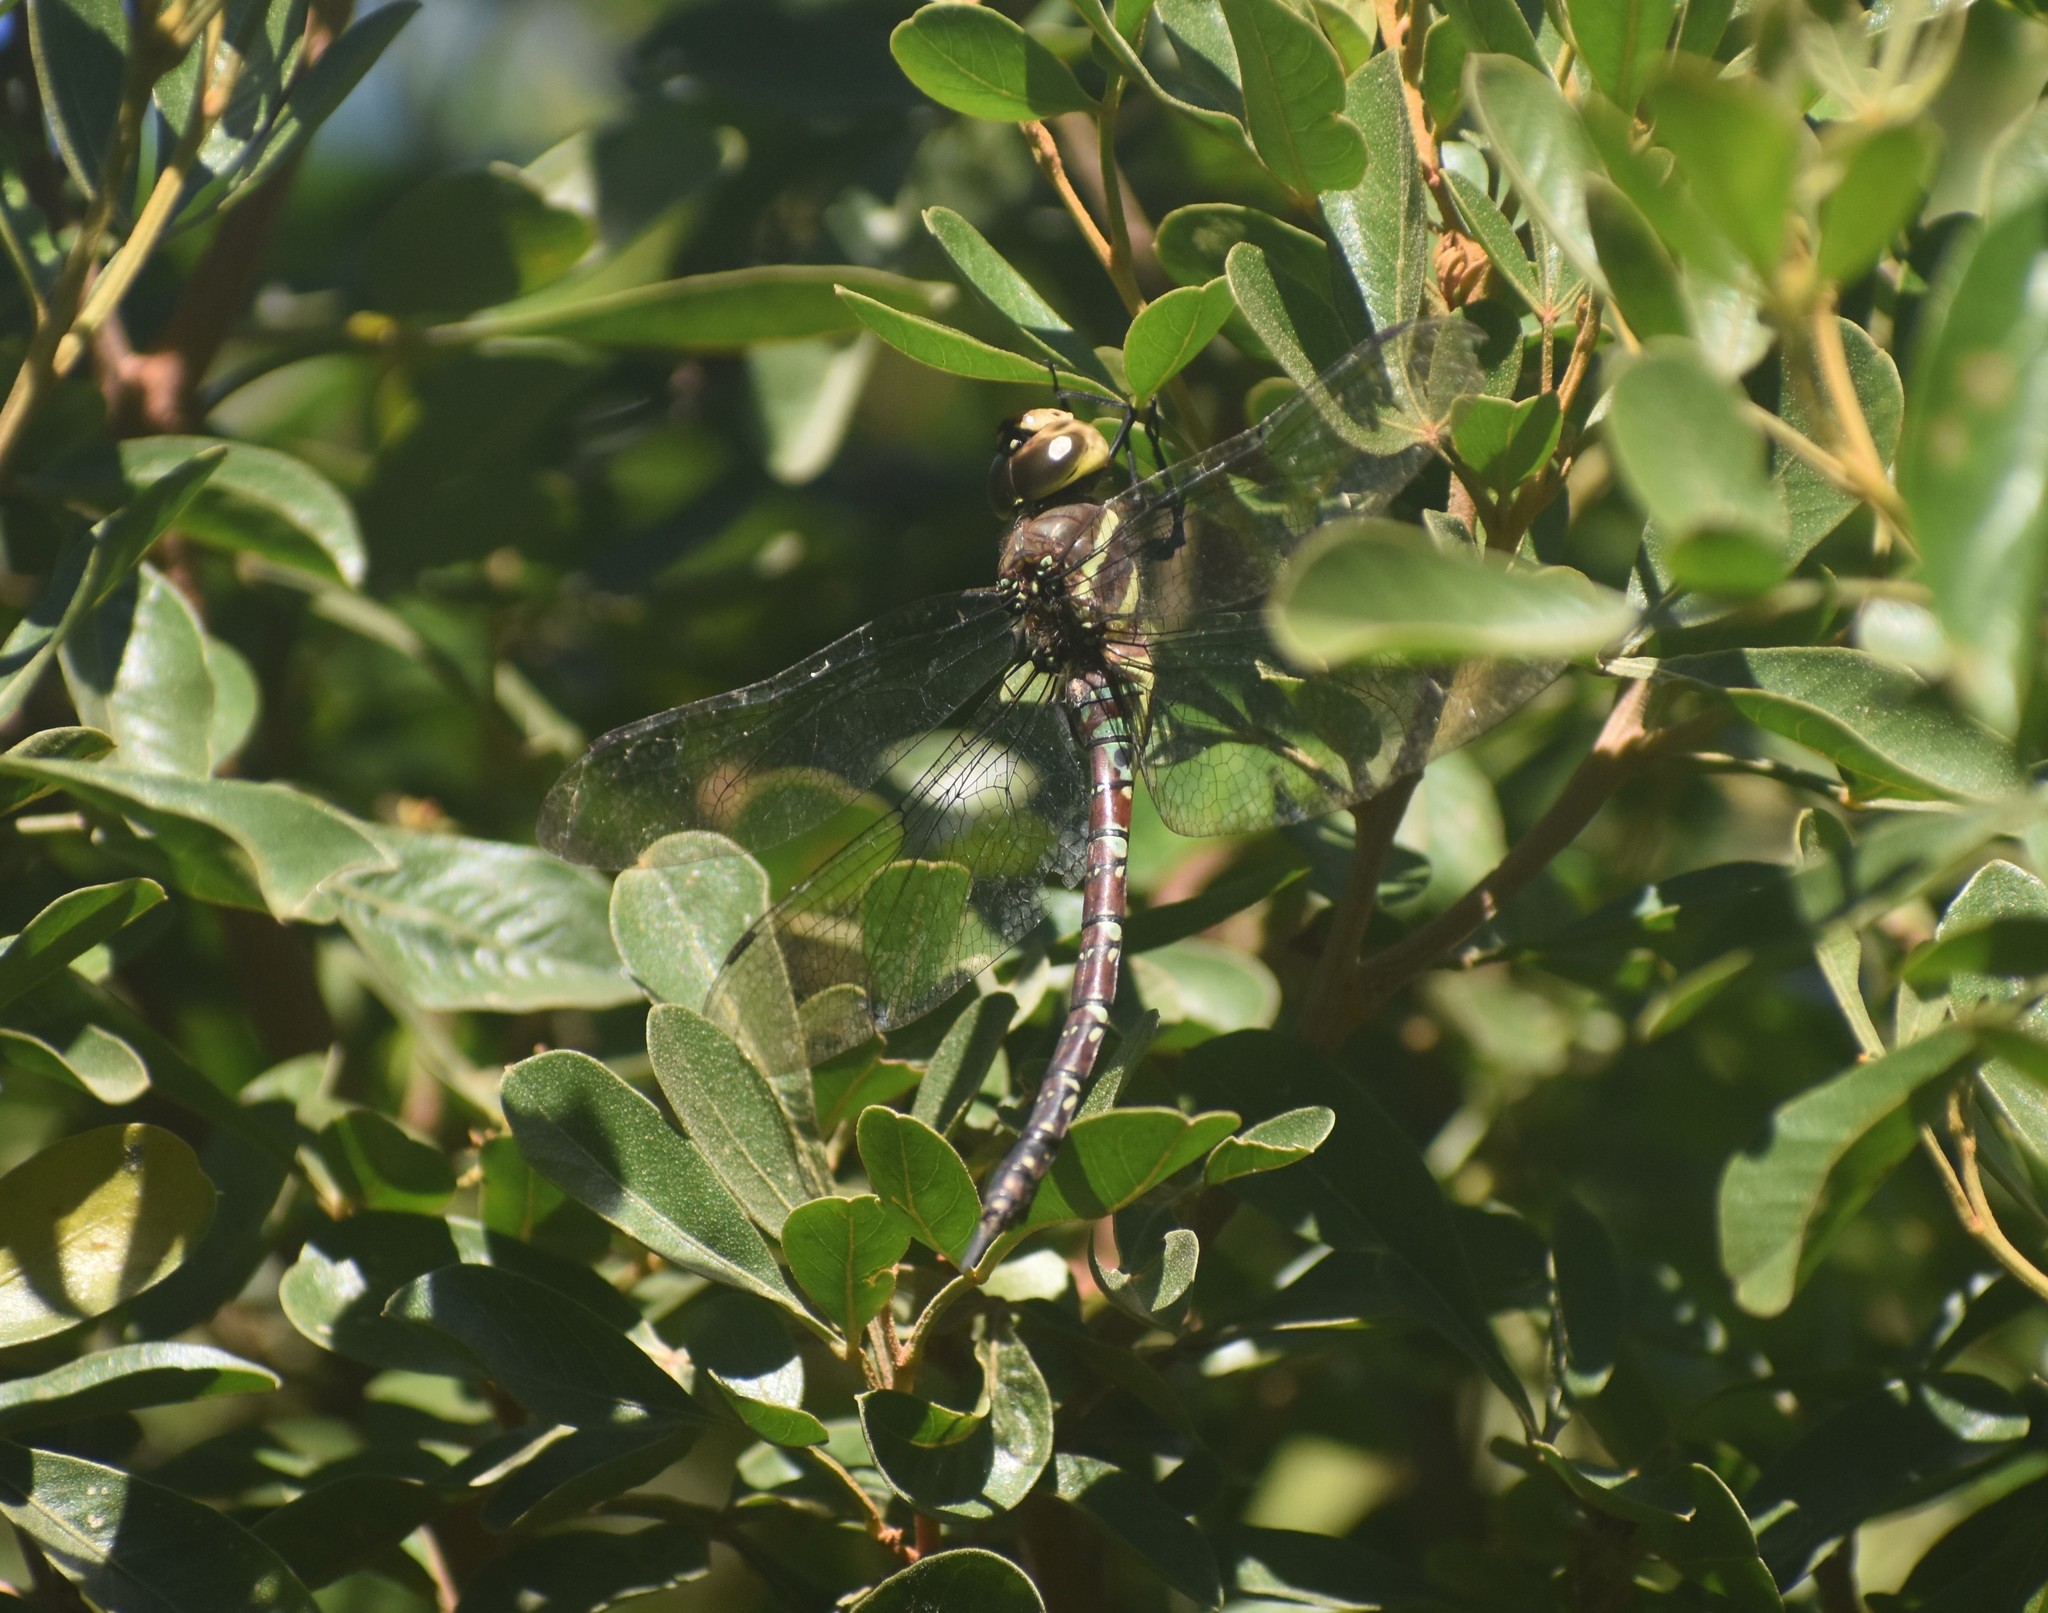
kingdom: Animalia
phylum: Arthropoda
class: Insecta
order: Odonata
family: Aeshnidae
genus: Anaciaeschna
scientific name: Anaciaeschna triangulifera
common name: Evening hawker
